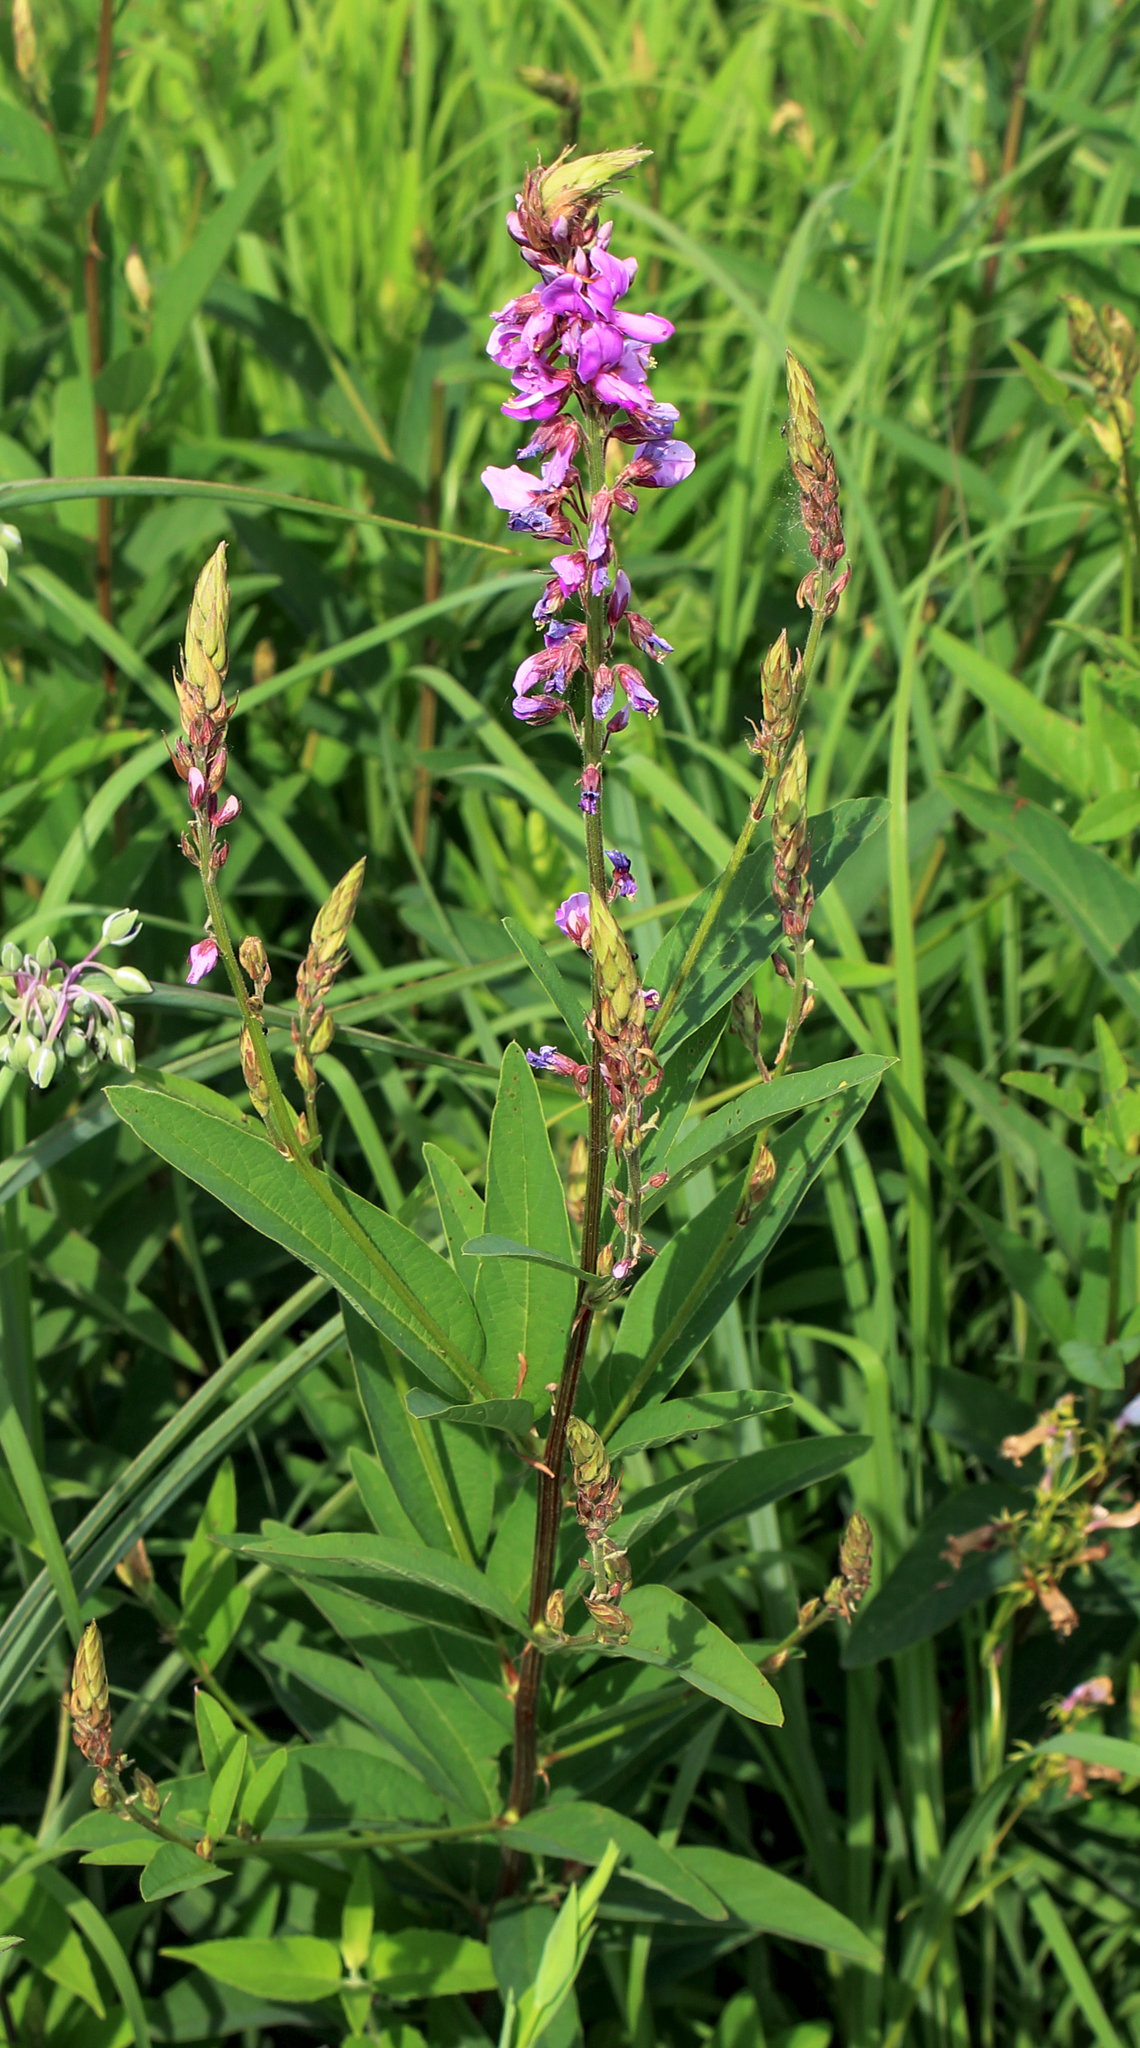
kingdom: Plantae
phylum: Tracheophyta
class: Magnoliopsida
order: Fabales
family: Fabaceae
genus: Desmodium
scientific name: Desmodium canadense
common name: Canada tick-trefoil
